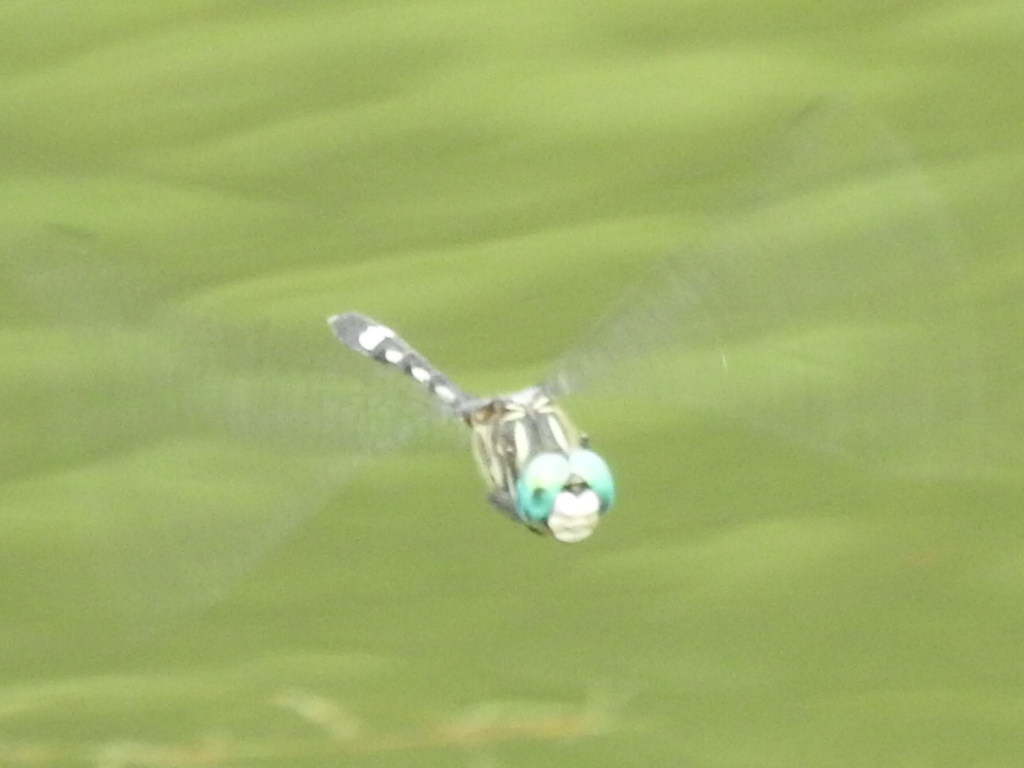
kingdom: Animalia
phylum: Arthropoda
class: Insecta
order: Odonata
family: Libellulidae
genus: Micrathyria
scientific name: Micrathyria hagenii
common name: Thornbush dasher
